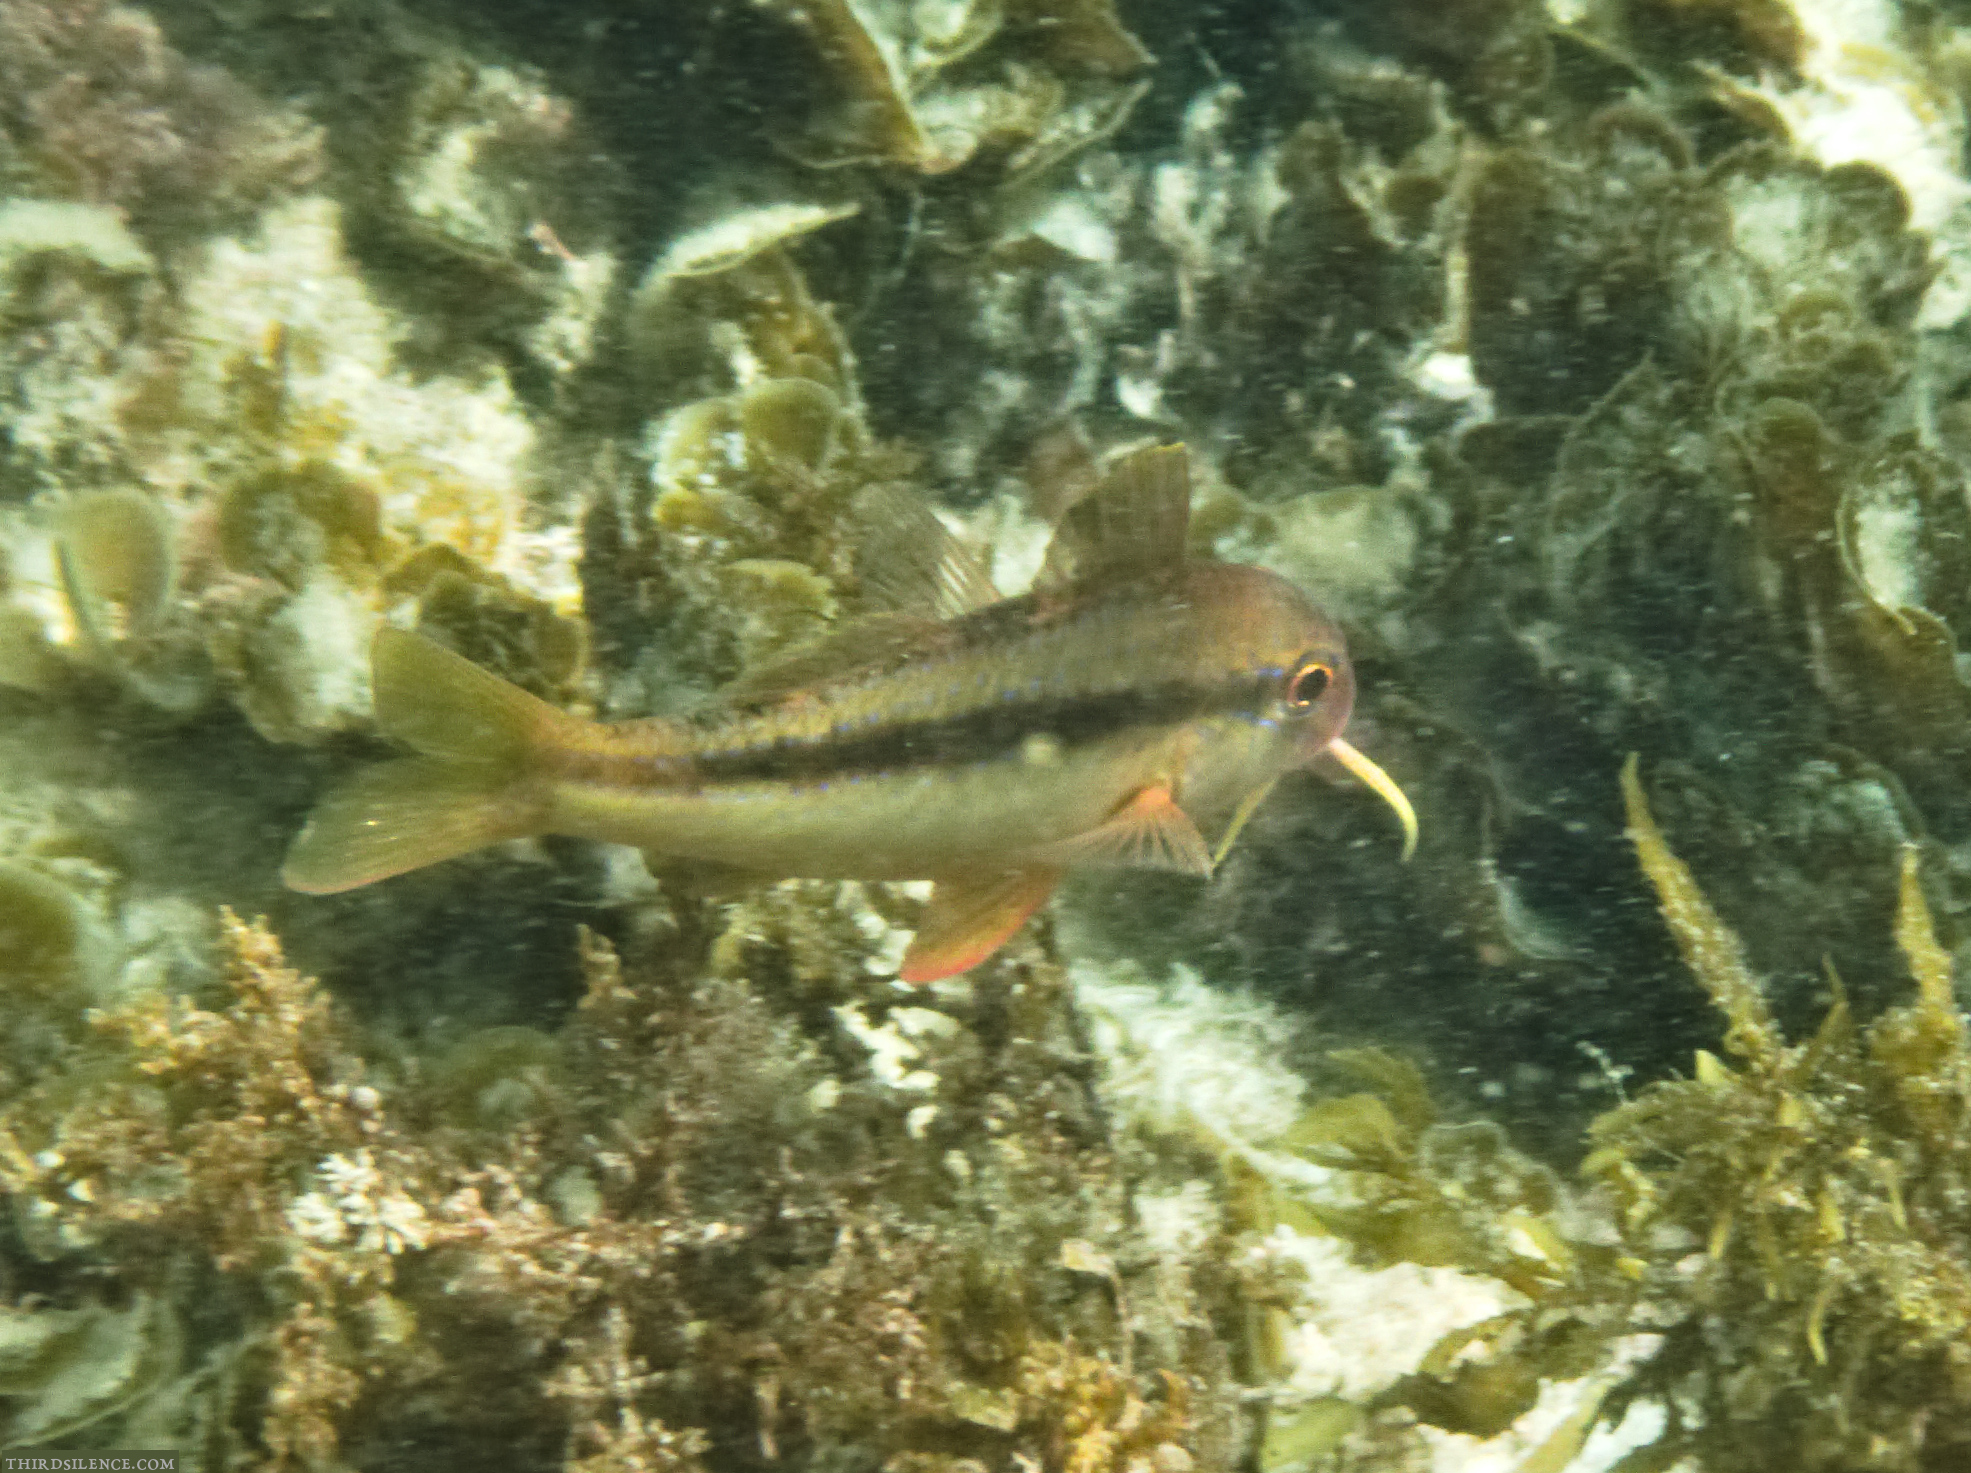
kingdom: Animalia
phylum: Chordata
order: Perciformes
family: Mullidae
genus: Upeneichthys
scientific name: Upeneichthys lineatus
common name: Red mullet
